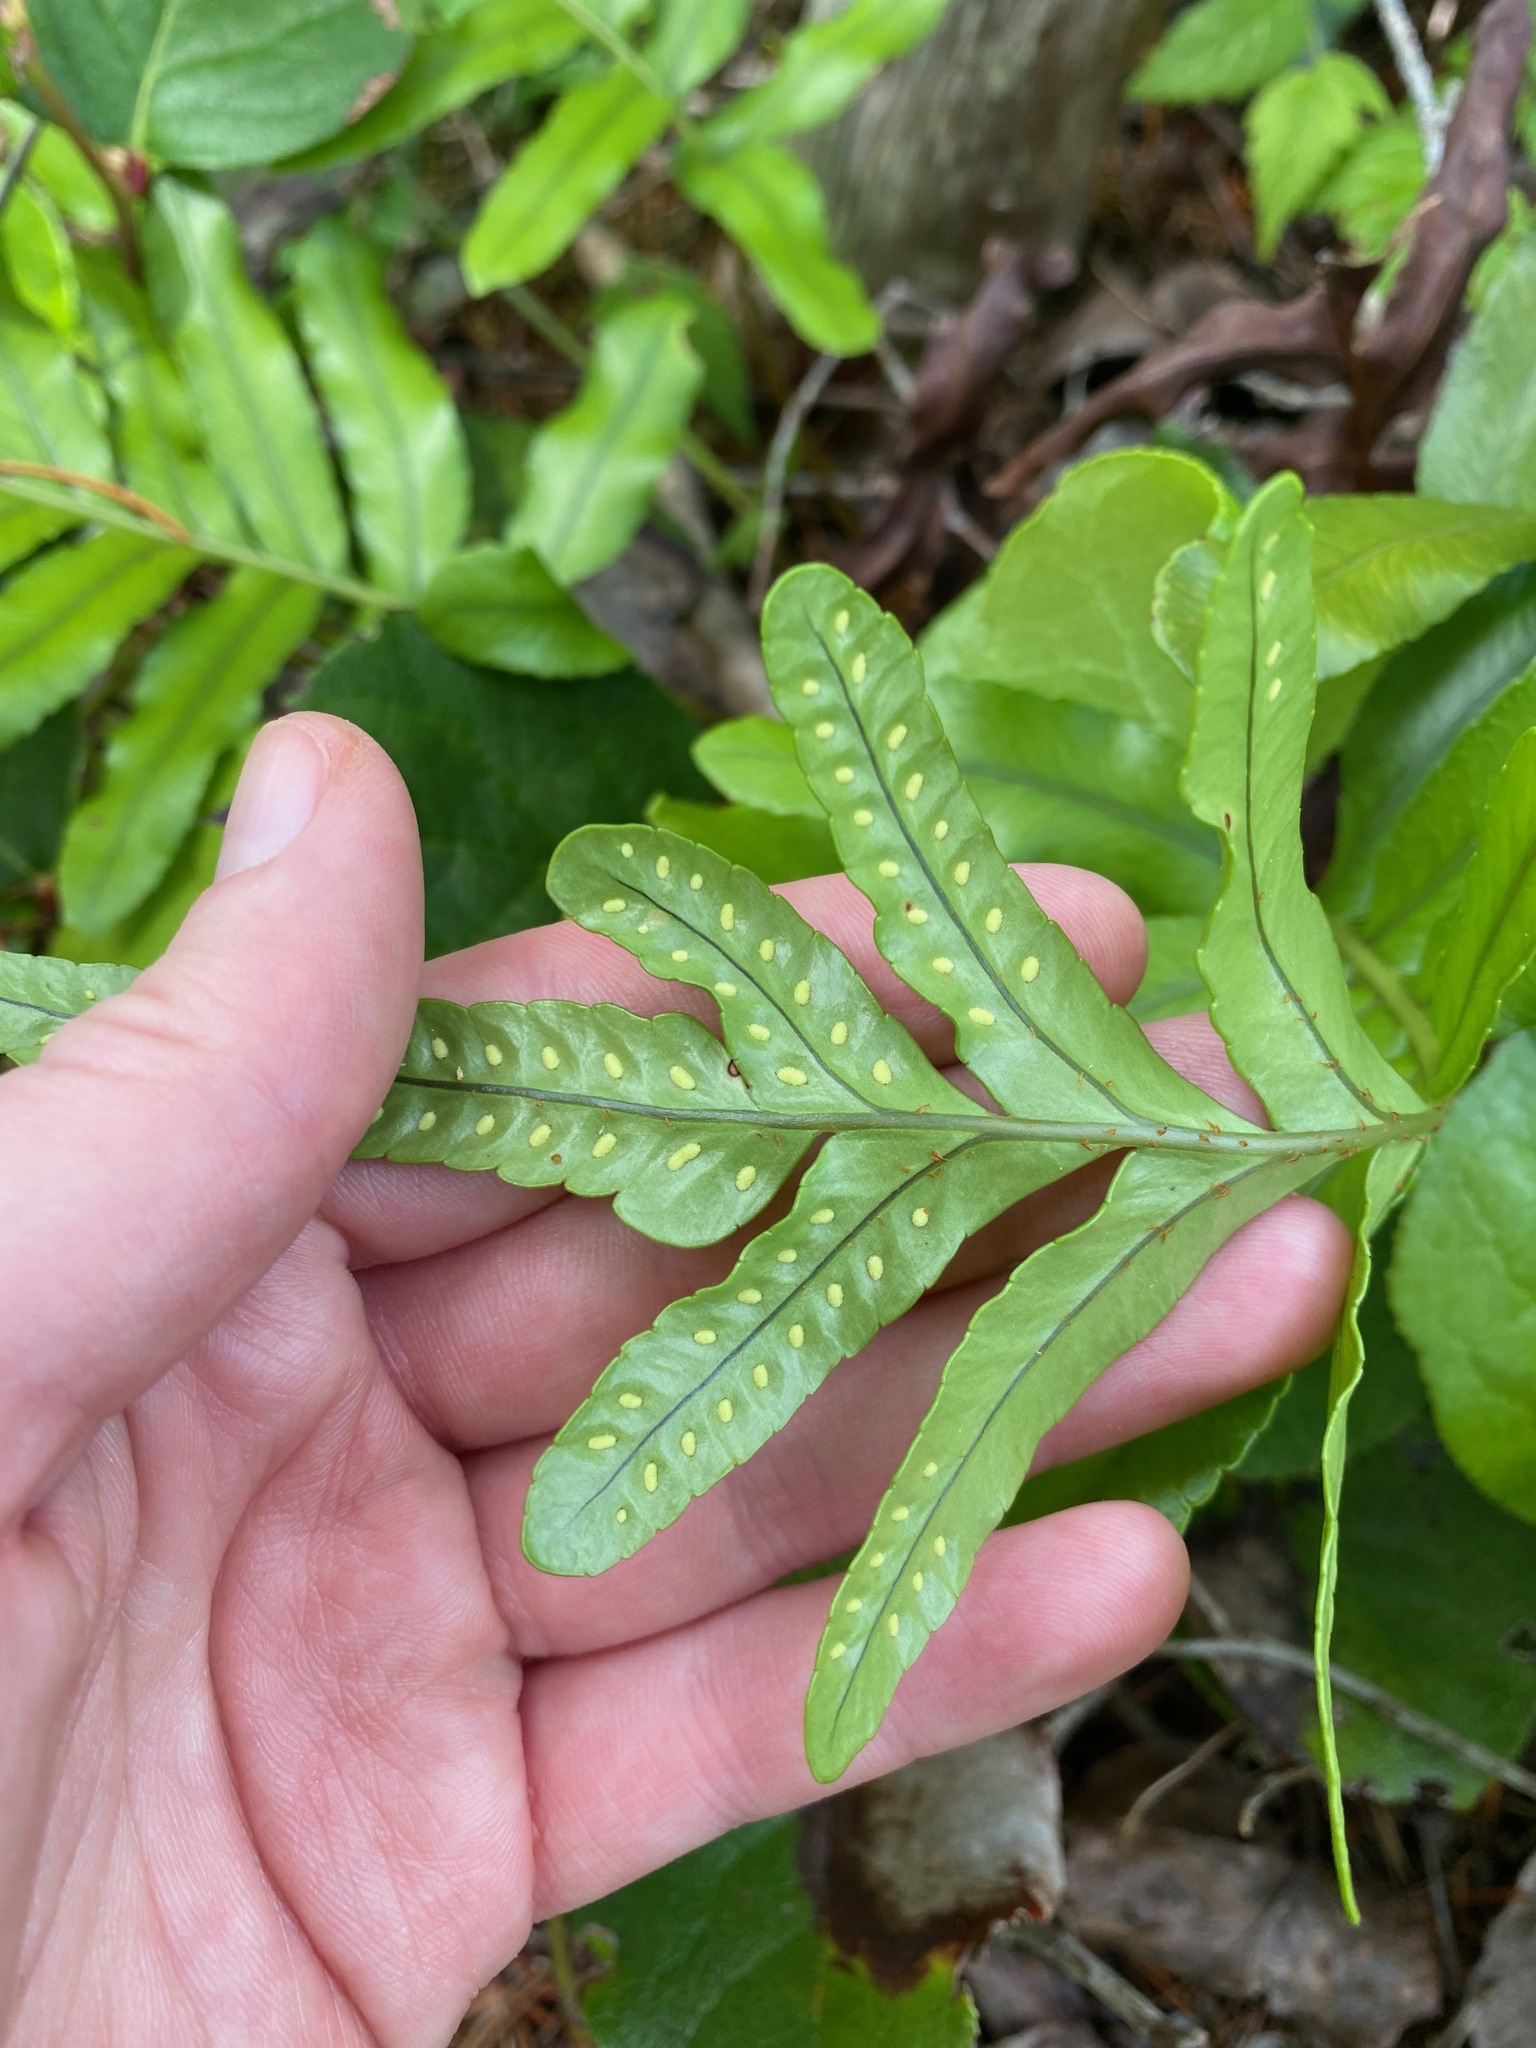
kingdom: Plantae
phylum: Tracheophyta
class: Polypodiopsida
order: Polypodiales
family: Polypodiaceae
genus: Polypodium
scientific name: Polypodium scouleri
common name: Scouler's polypody
